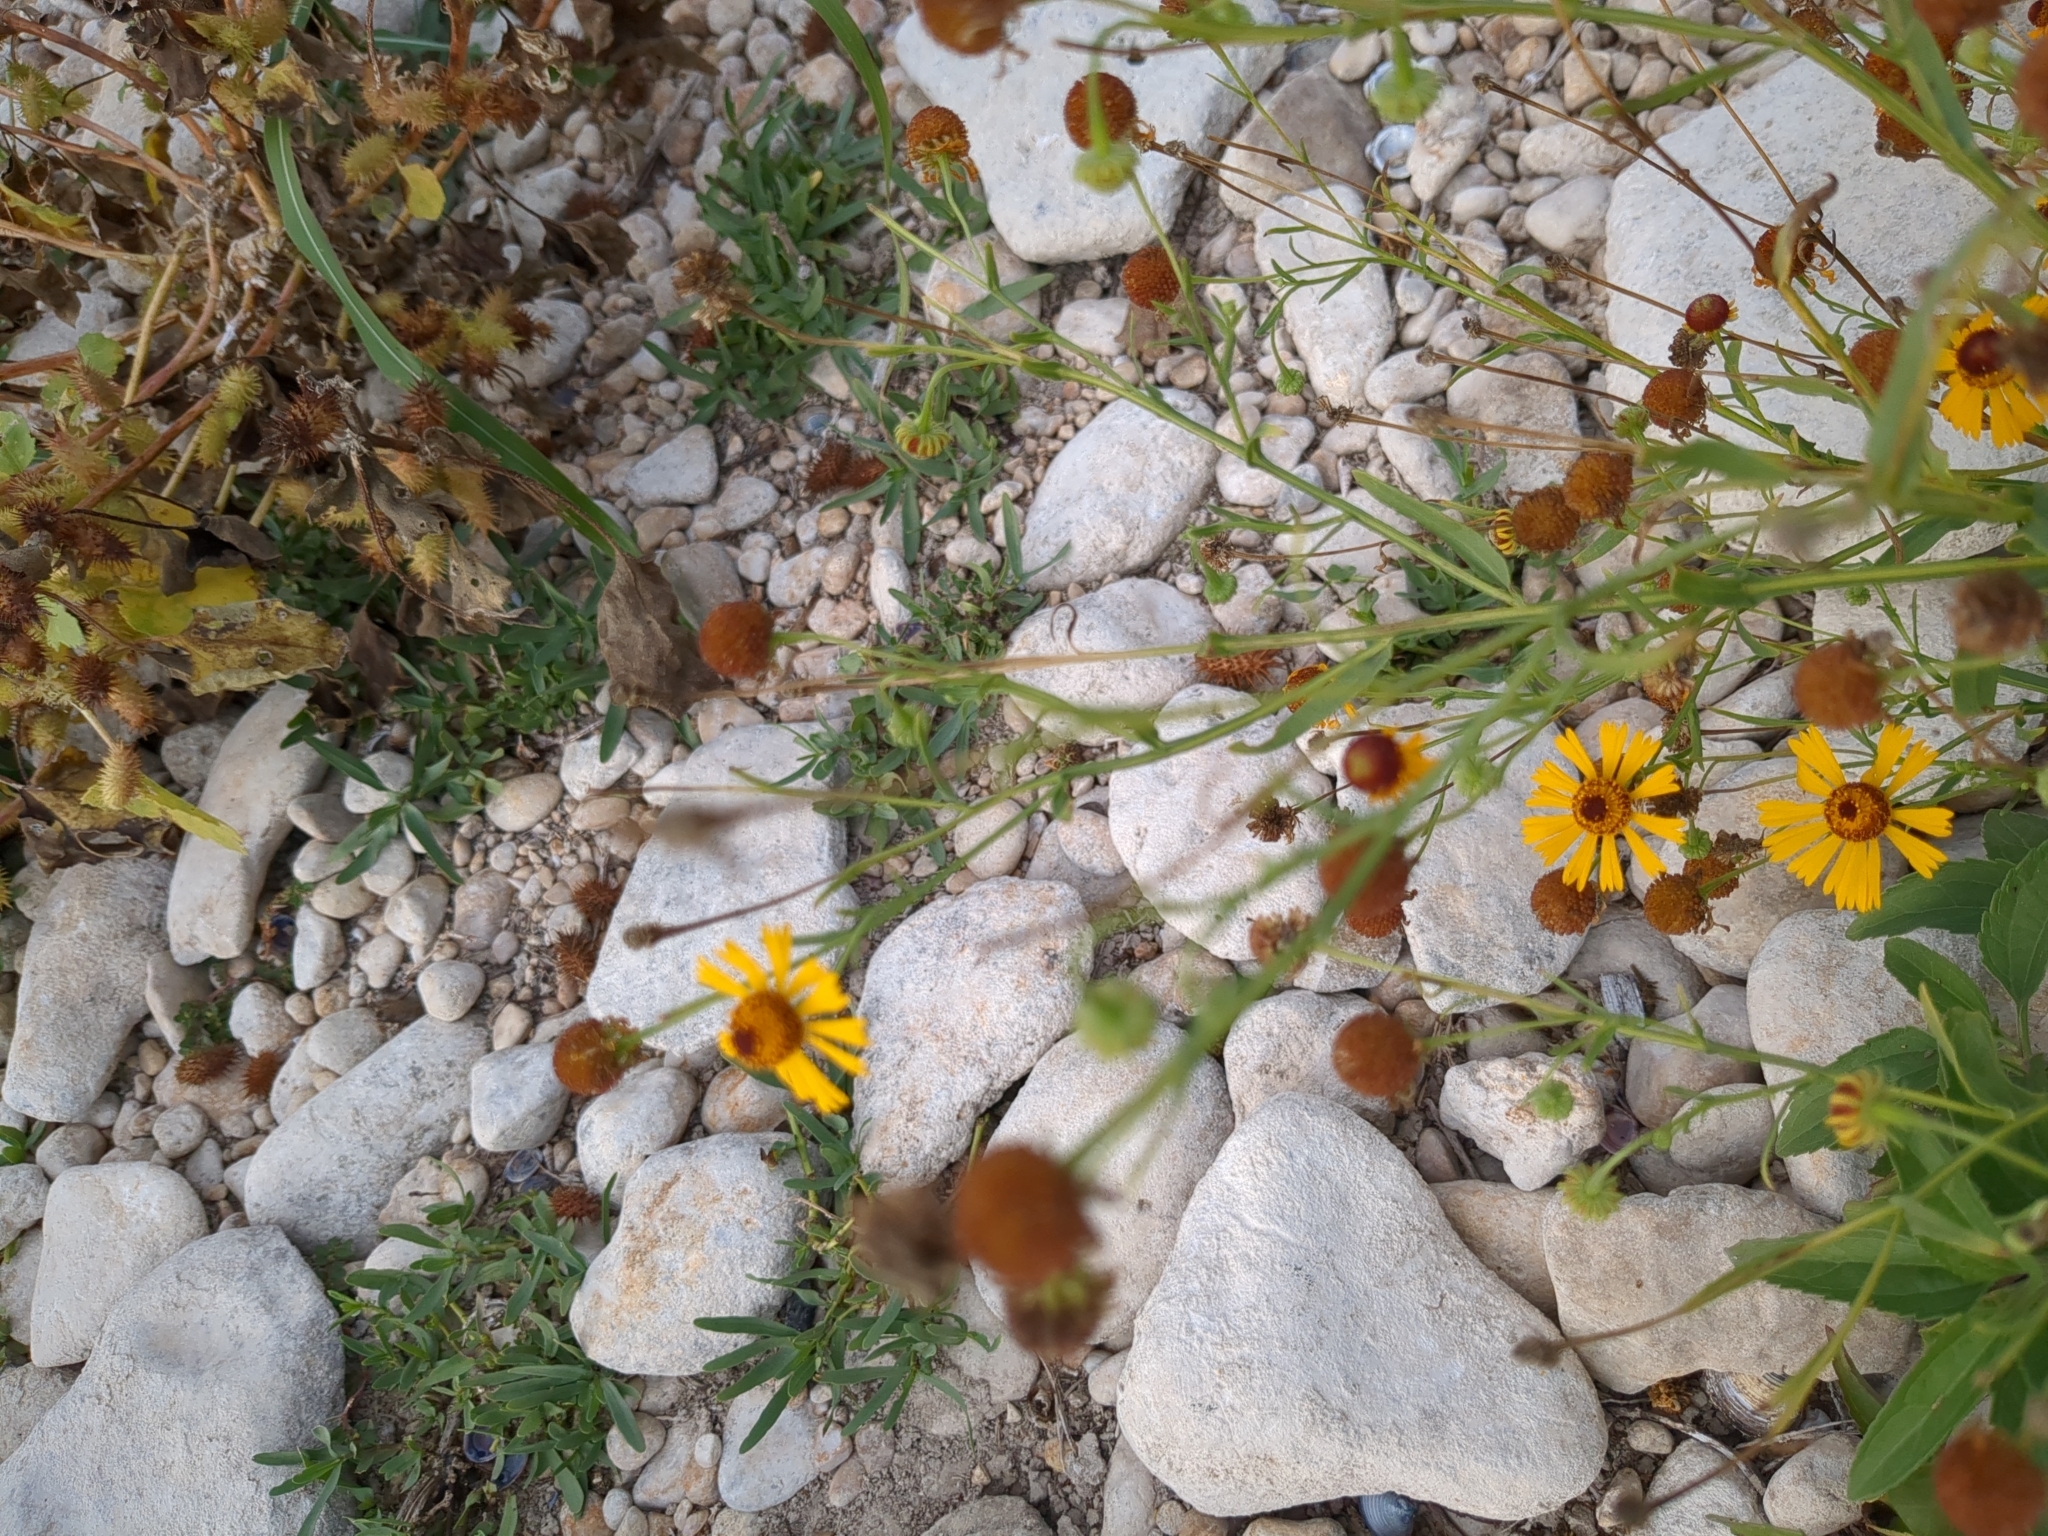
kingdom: Plantae
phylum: Tracheophyta
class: Magnoliopsida
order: Asterales
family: Asteraceae
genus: Helenium
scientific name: Helenium elegans
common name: Pretty sneezeweed
